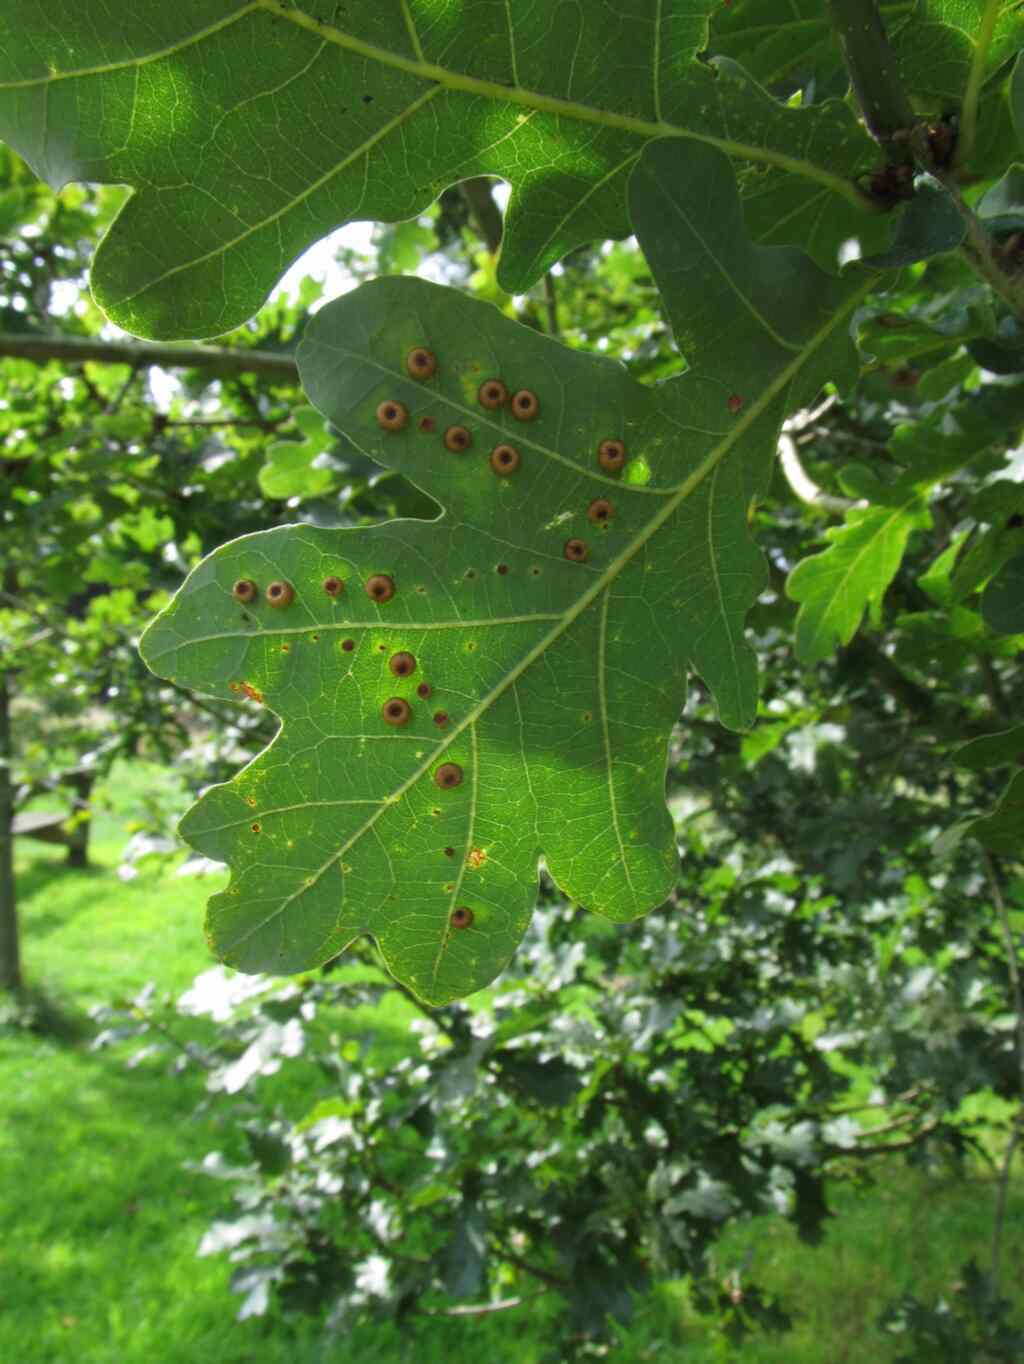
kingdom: Animalia
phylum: Arthropoda
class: Insecta
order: Hymenoptera
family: Cynipidae
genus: Neuroterus
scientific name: Neuroterus numismalis
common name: Silk-button spangle gall
